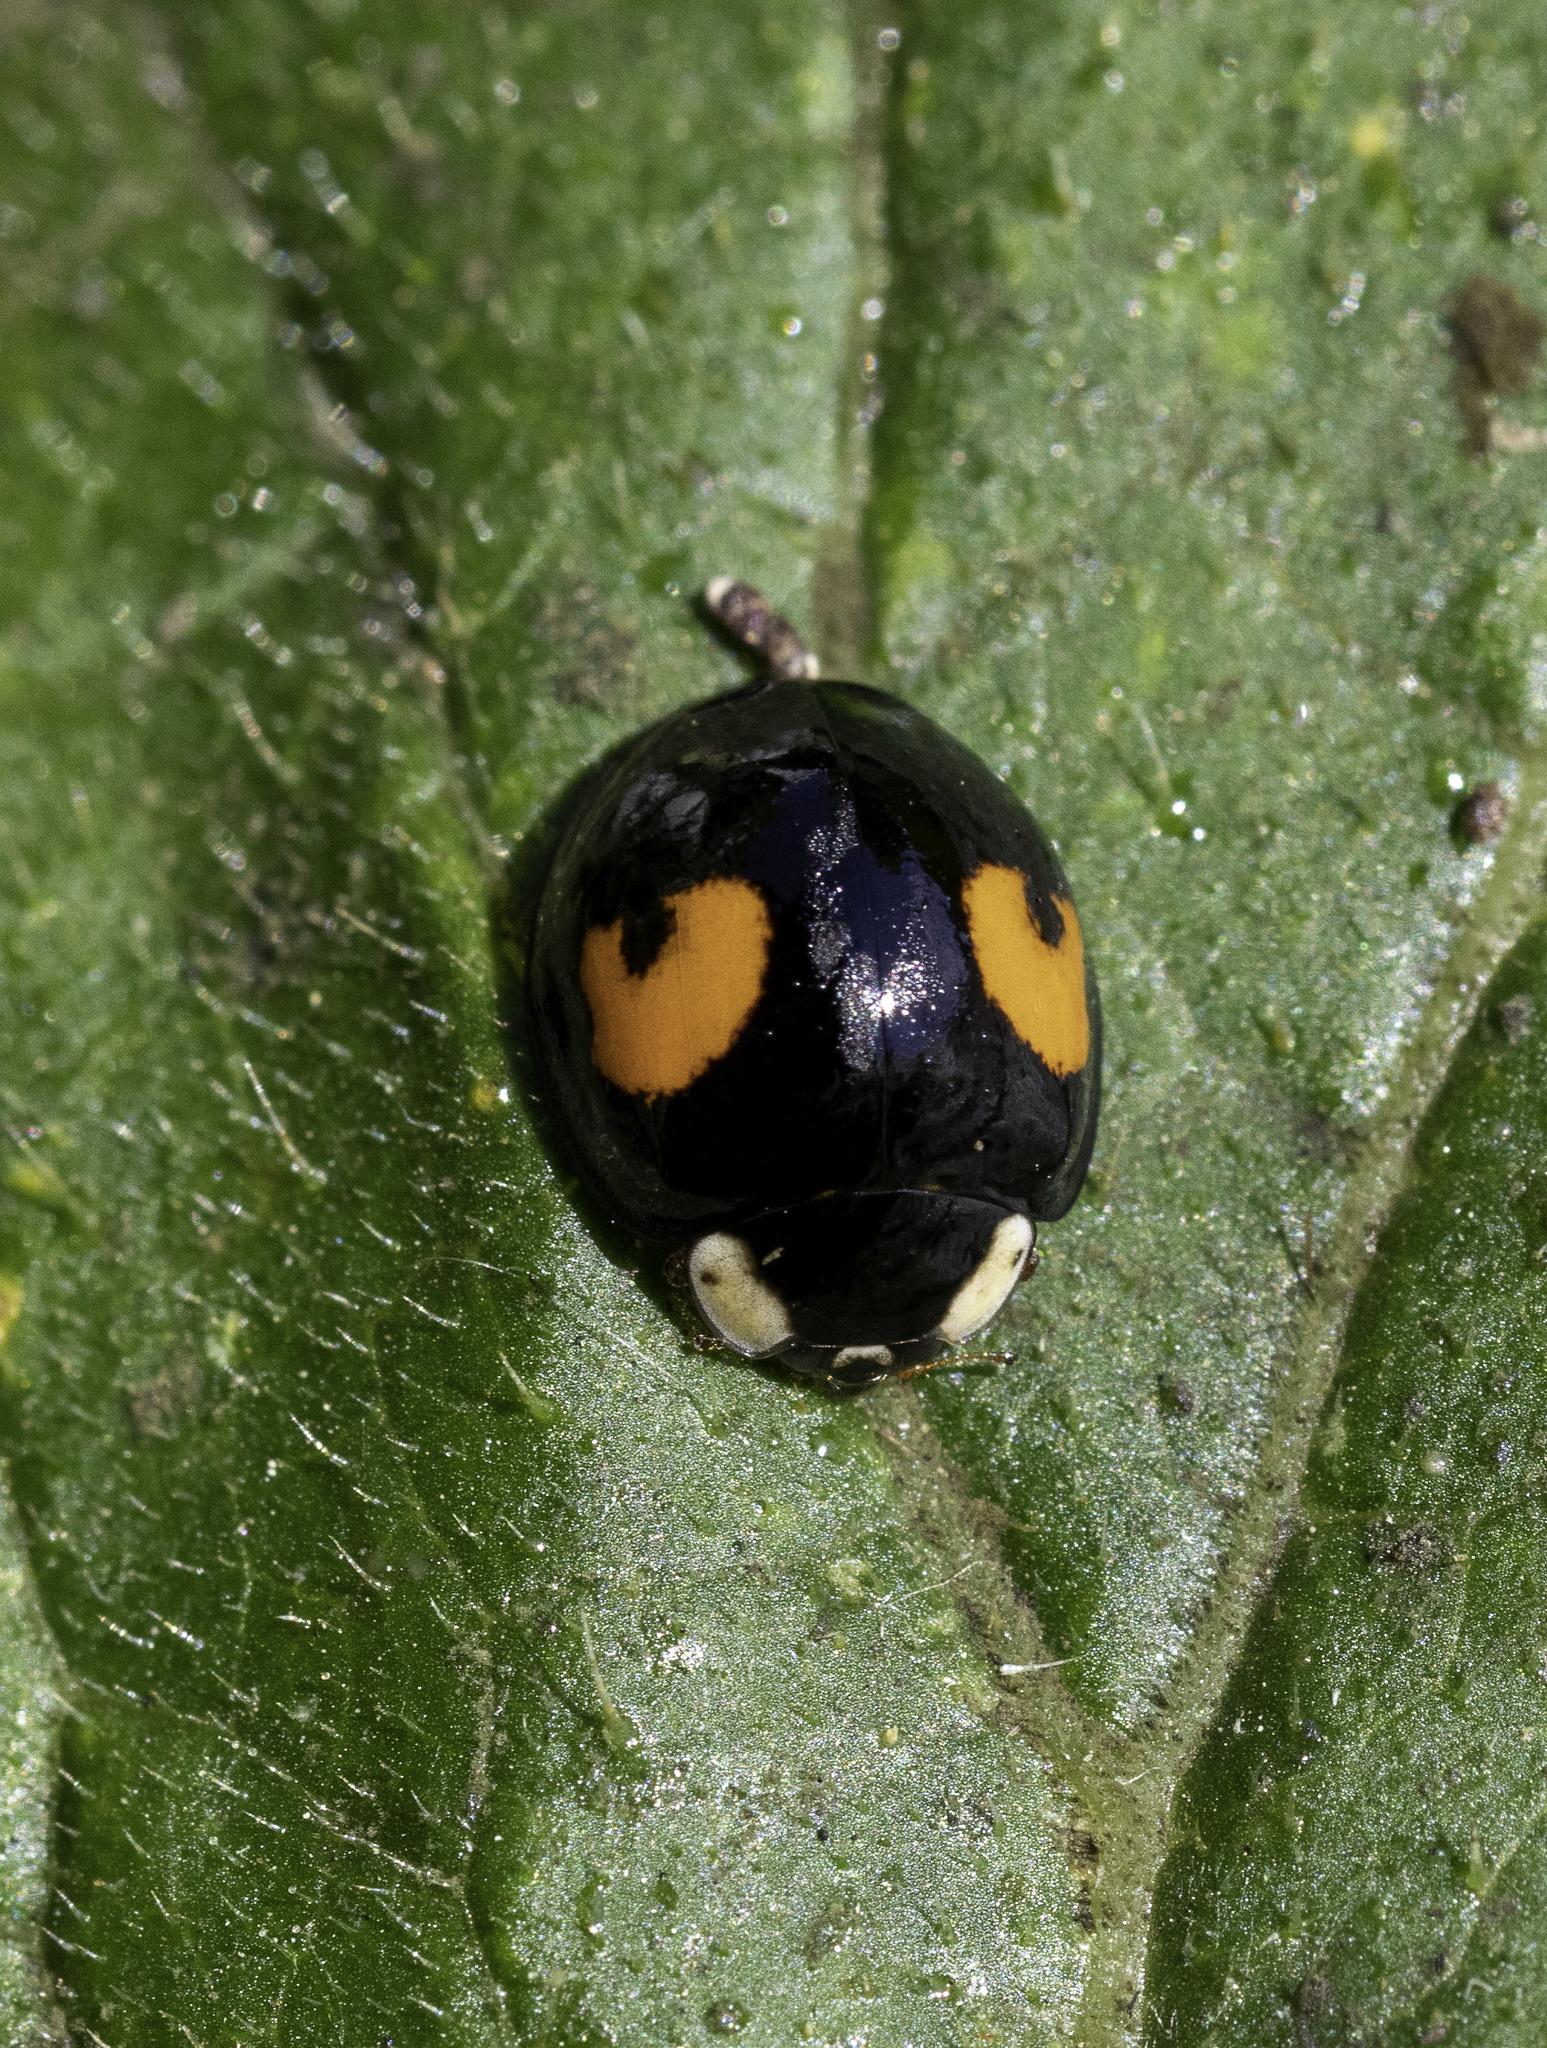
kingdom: Animalia
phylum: Arthropoda
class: Insecta
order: Coleoptera
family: Coccinellidae
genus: Harmonia
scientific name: Harmonia axyridis
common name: Harlequin ladybird
